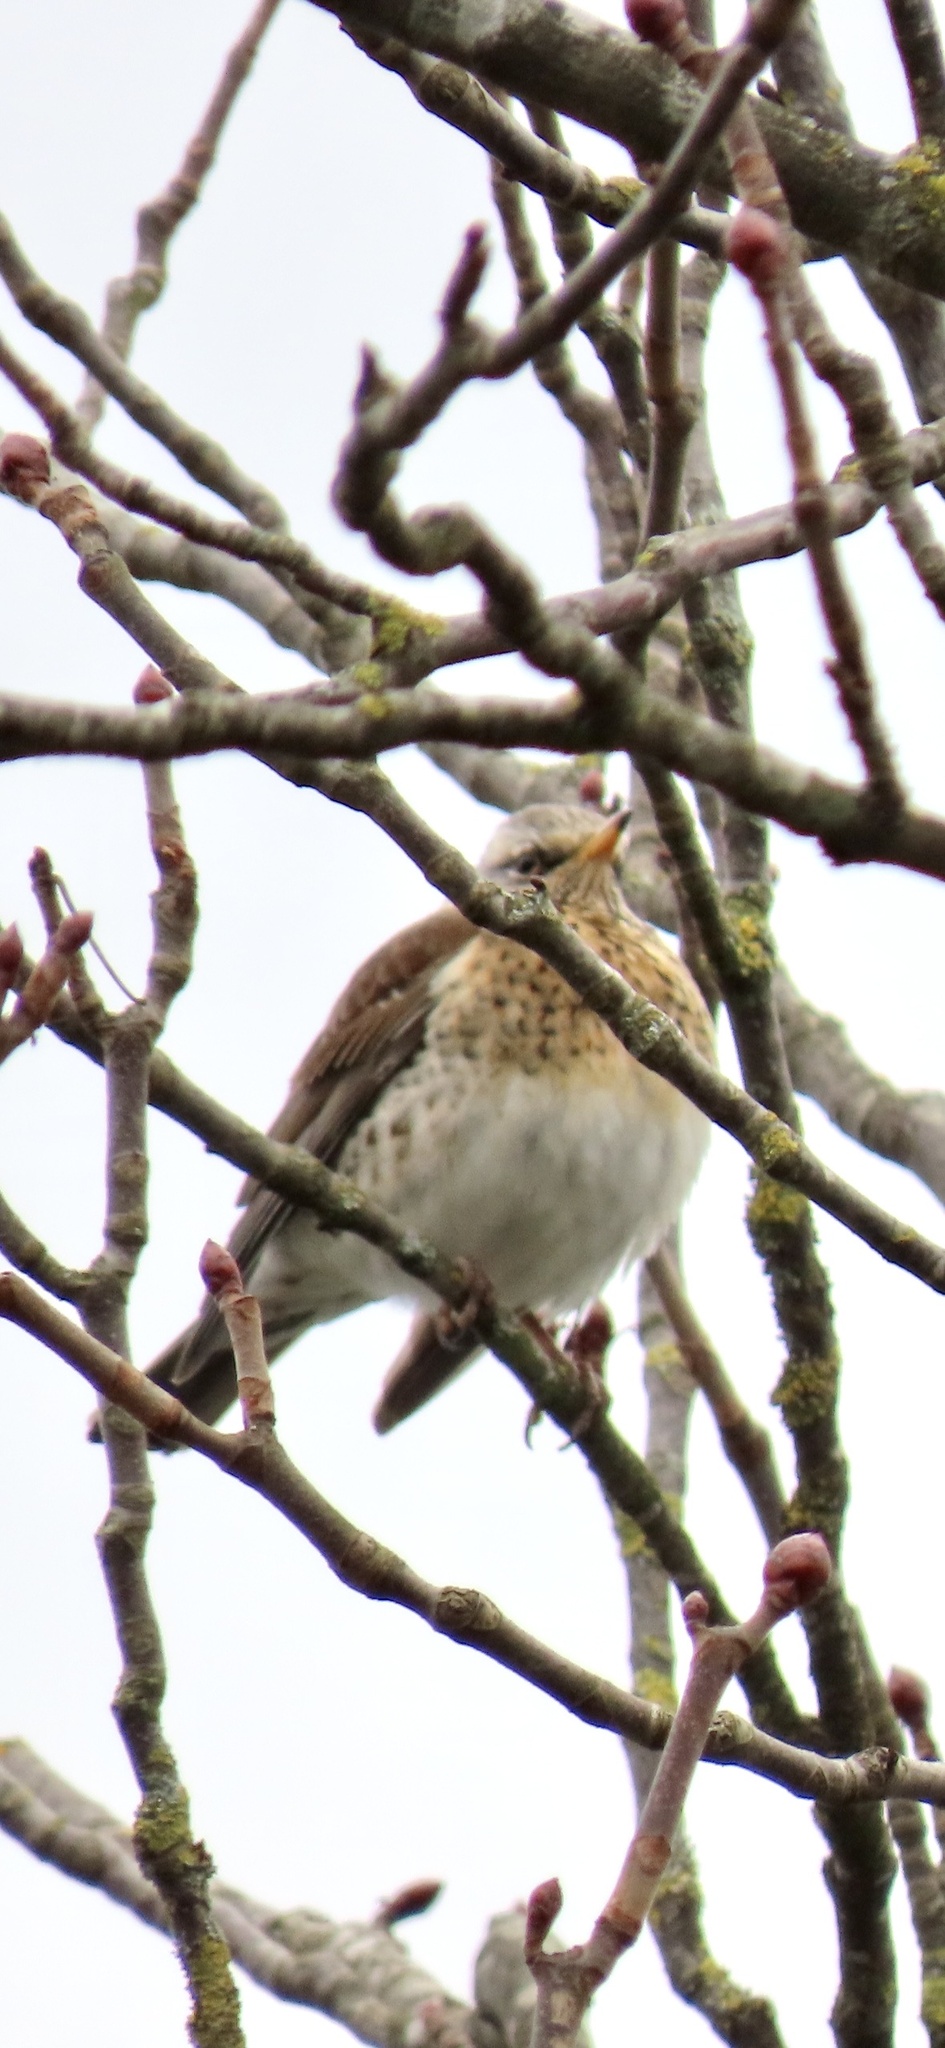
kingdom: Animalia
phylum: Chordata
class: Aves
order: Passeriformes
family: Turdidae
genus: Turdus
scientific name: Turdus pilaris
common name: Fieldfare
